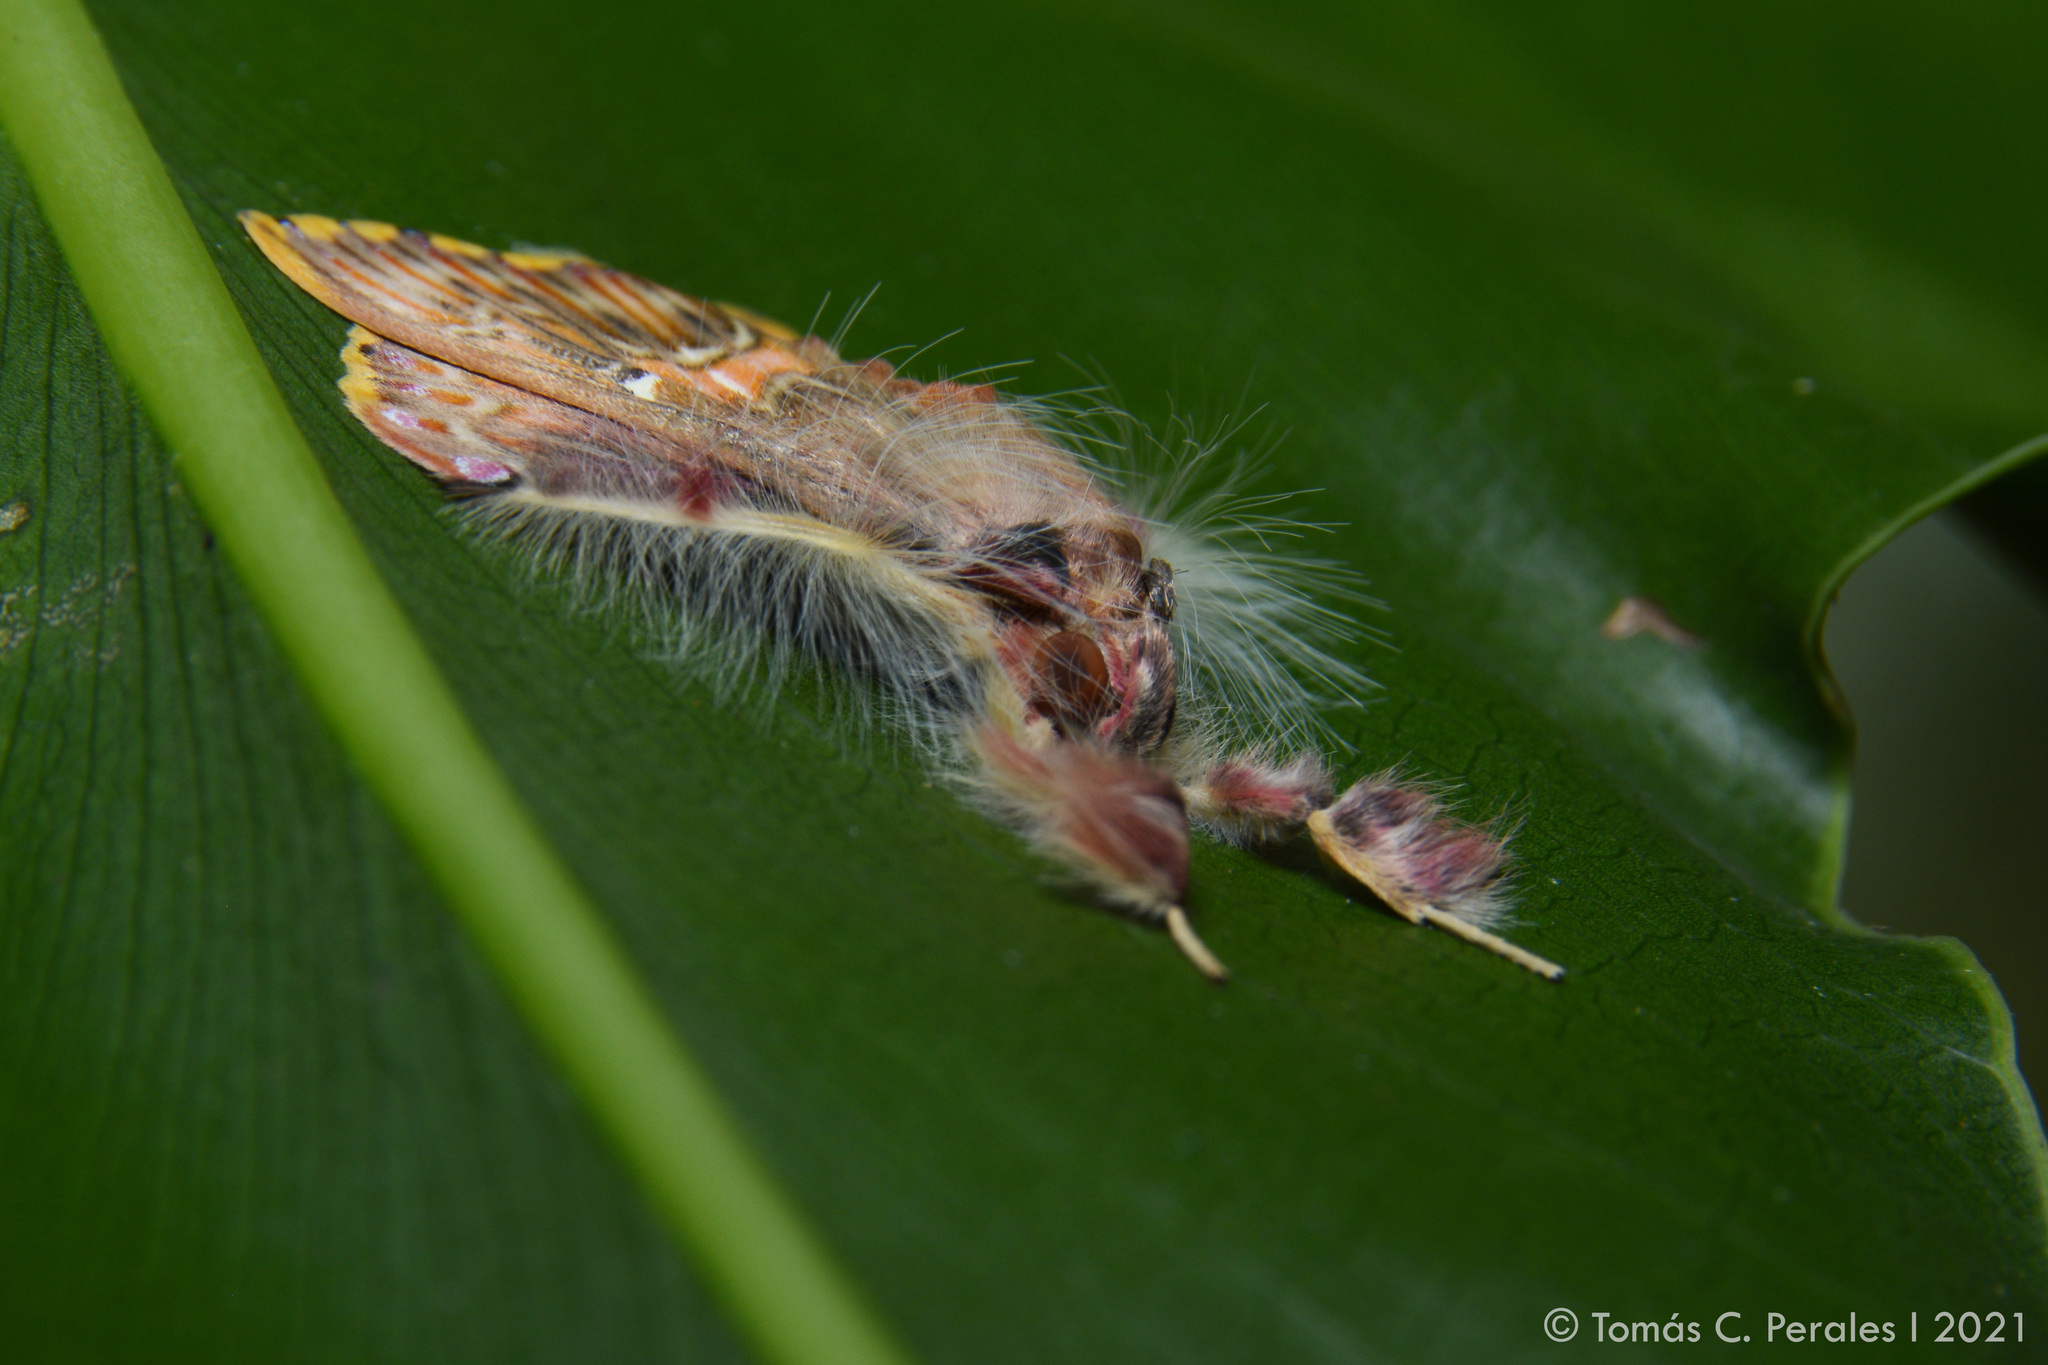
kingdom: Animalia
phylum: Arthropoda
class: Insecta
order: Lepidoptera
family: Erebidae
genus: Sosxetra
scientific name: Sosxetra grata
